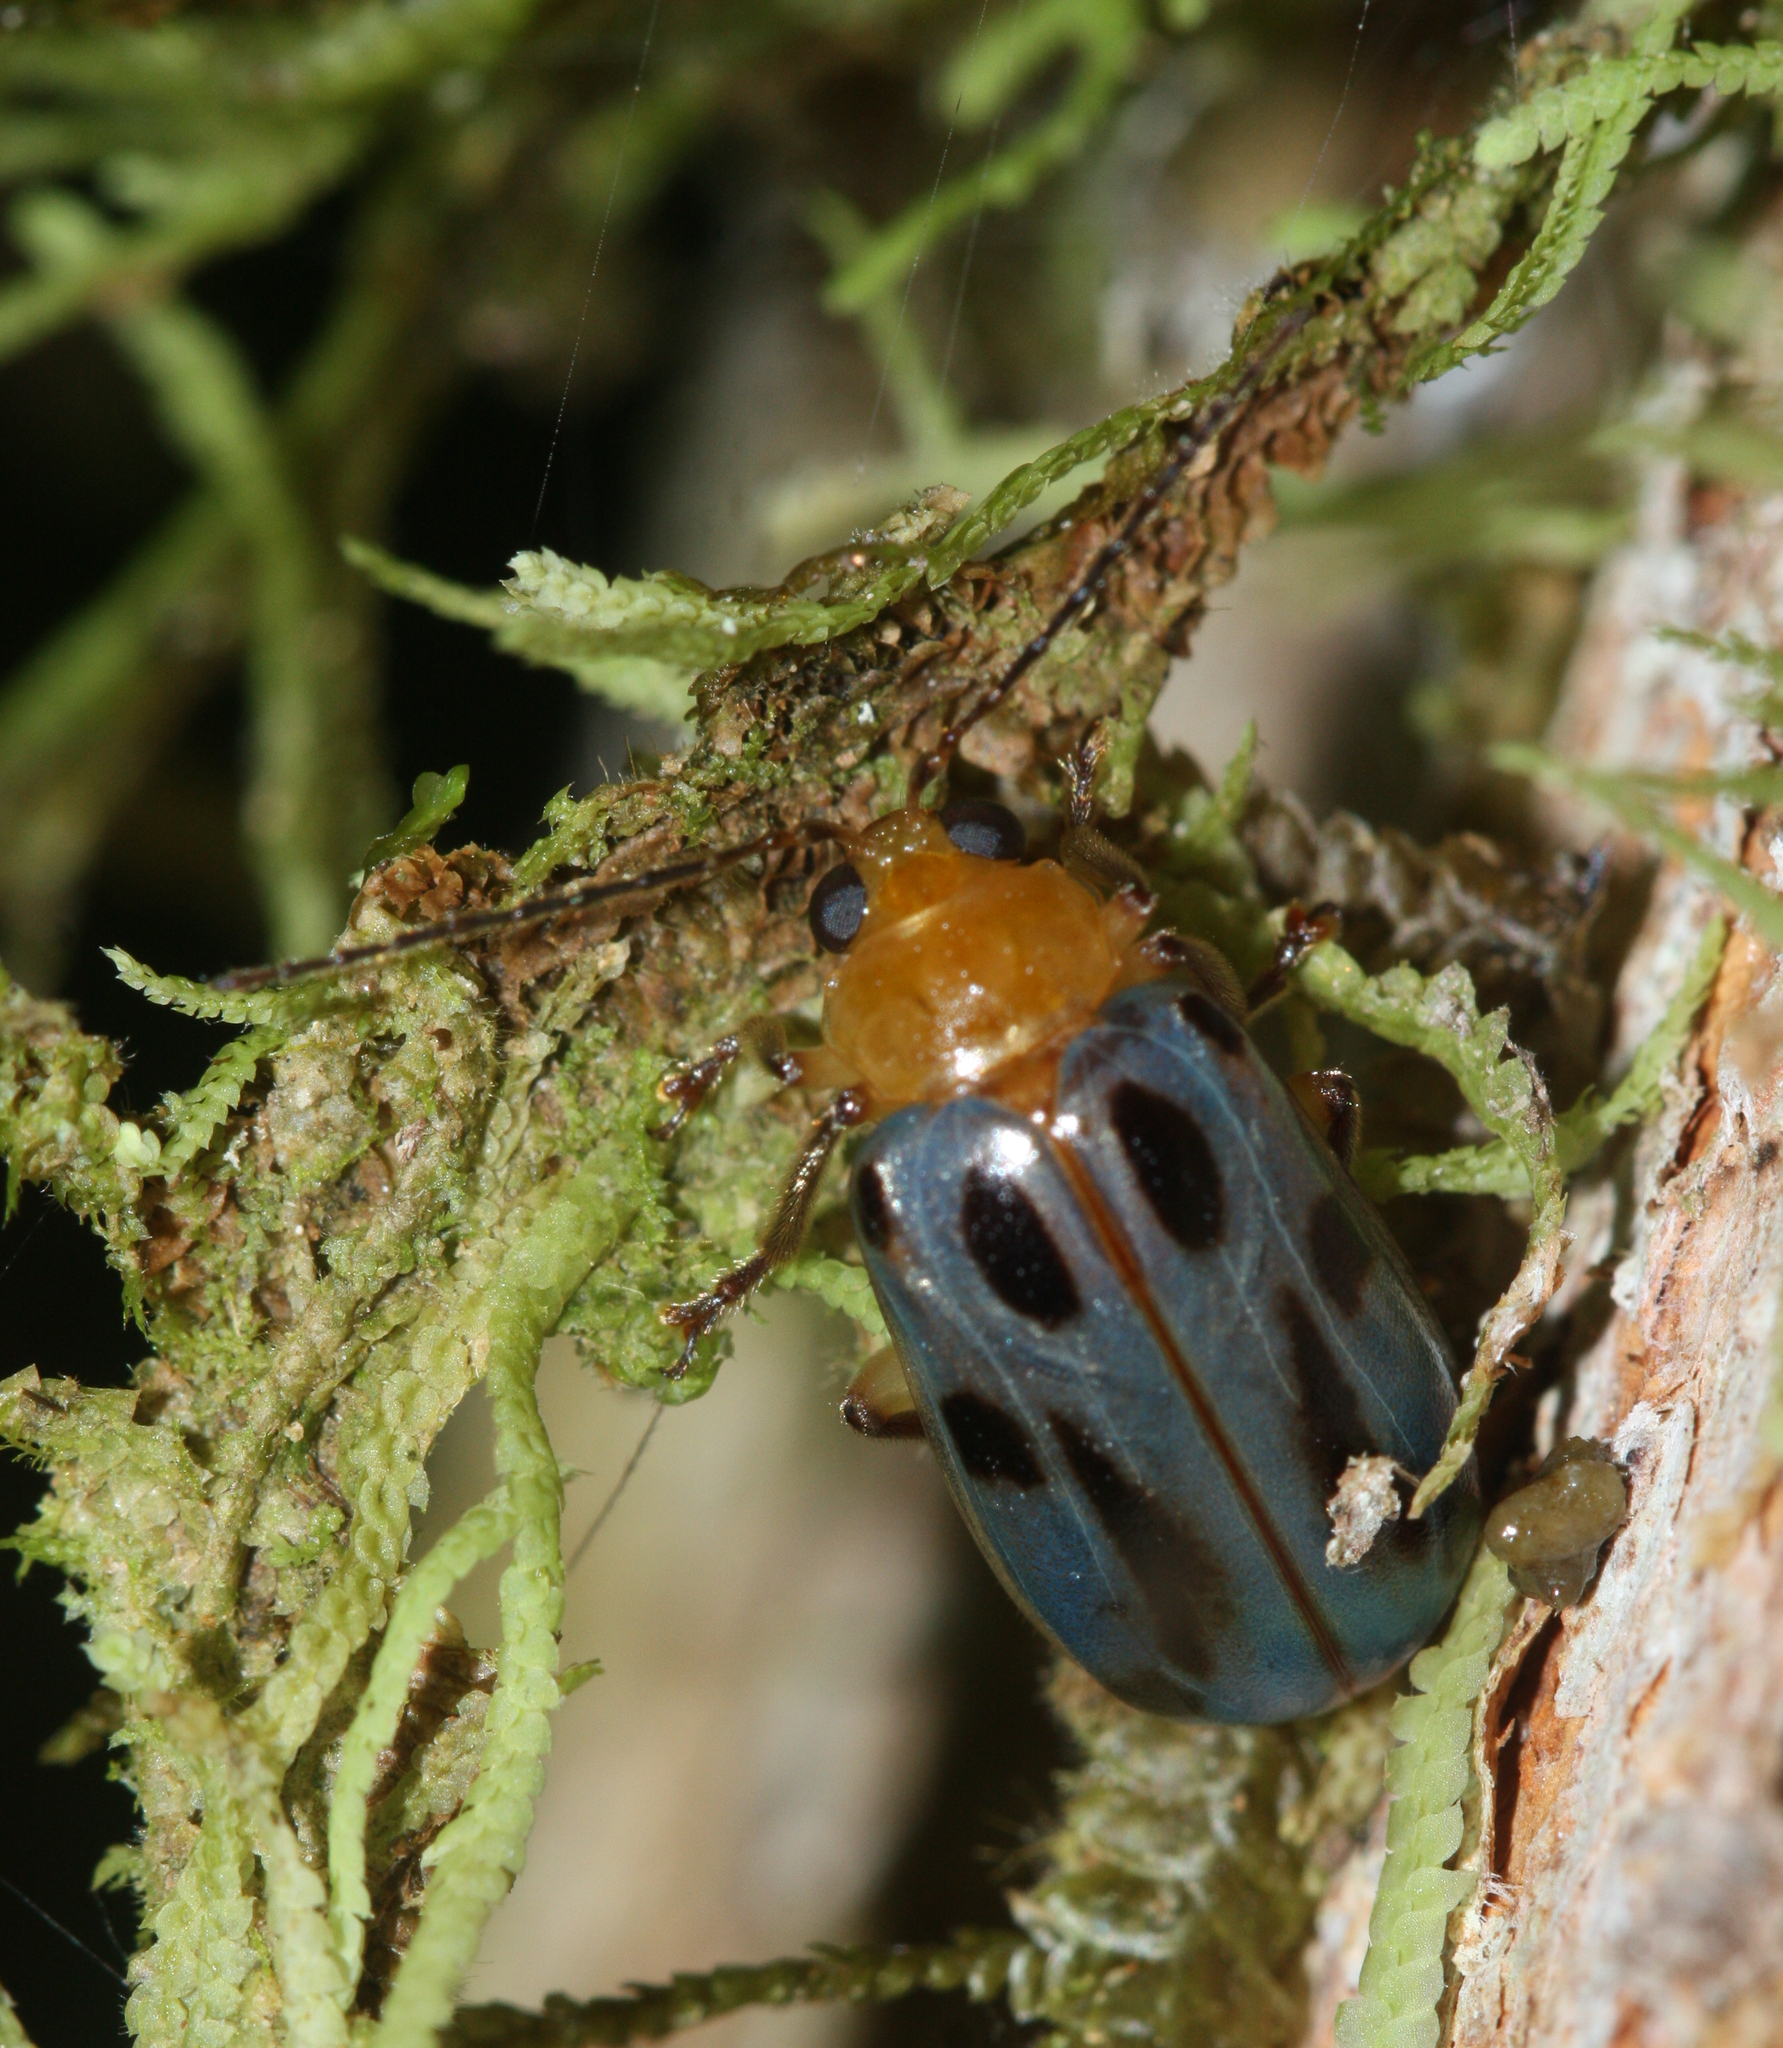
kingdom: Animalia
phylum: Arthropoda
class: Insecta
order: Coleoptera
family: Chrysomelidae
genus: Exora
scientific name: Exora obsoleta
